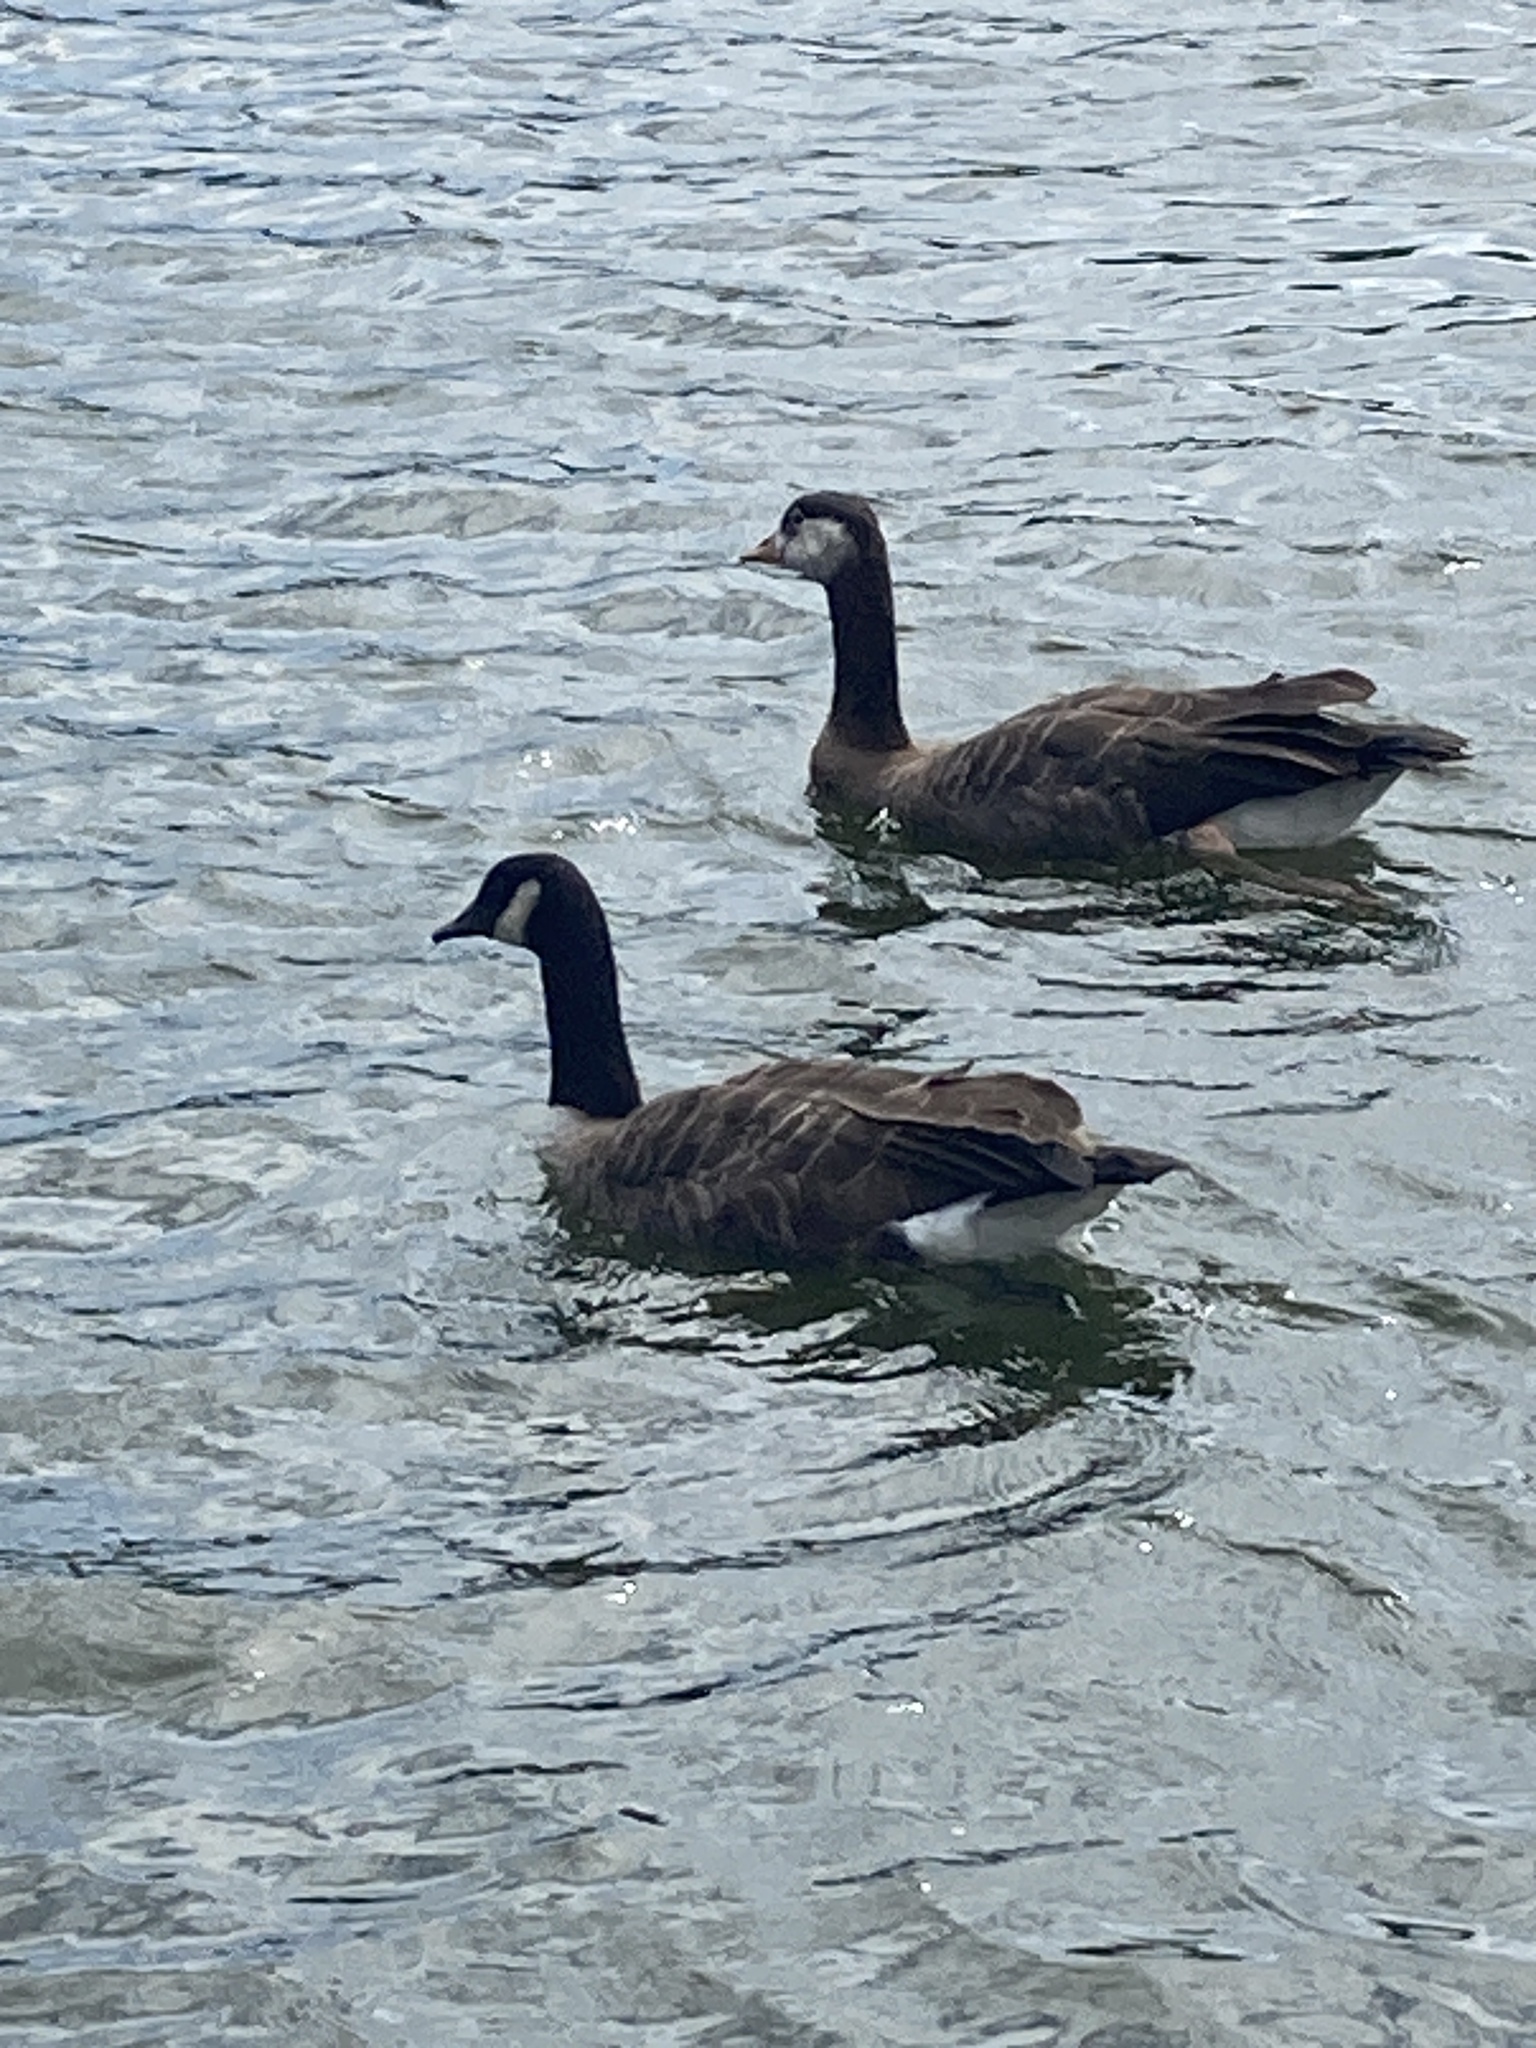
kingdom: Animalia
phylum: Chordata
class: Aves
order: Anseriformes
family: Anatidae
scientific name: Anatidae
